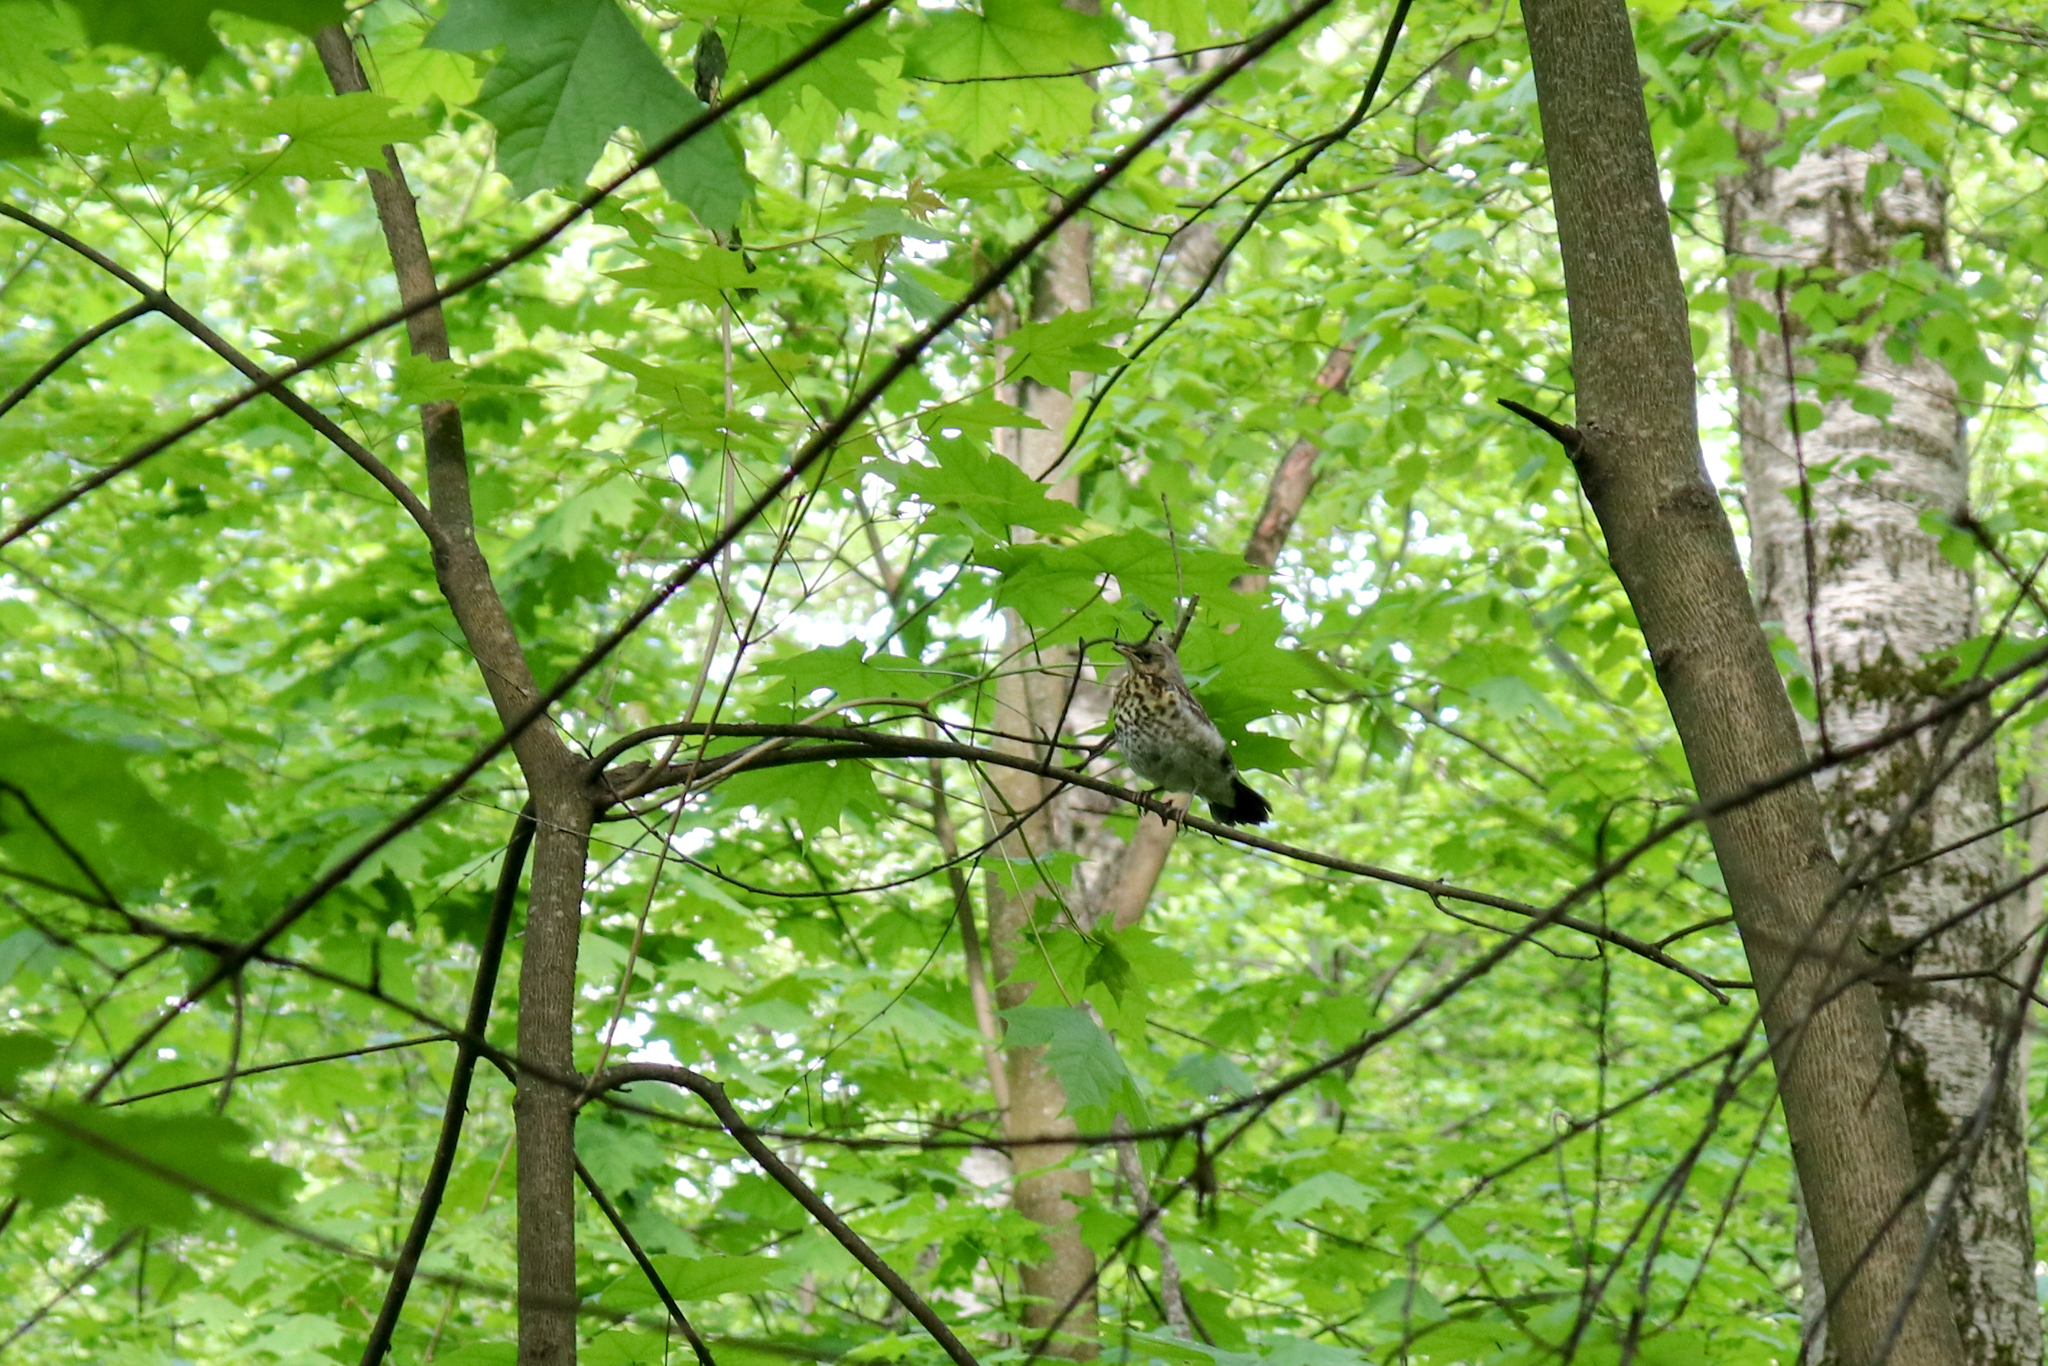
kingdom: Animalia
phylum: Chordata
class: Aves
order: Passeriformes
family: Turdidae
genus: Turdus
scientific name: Turdus pilaris
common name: Fieldfare
